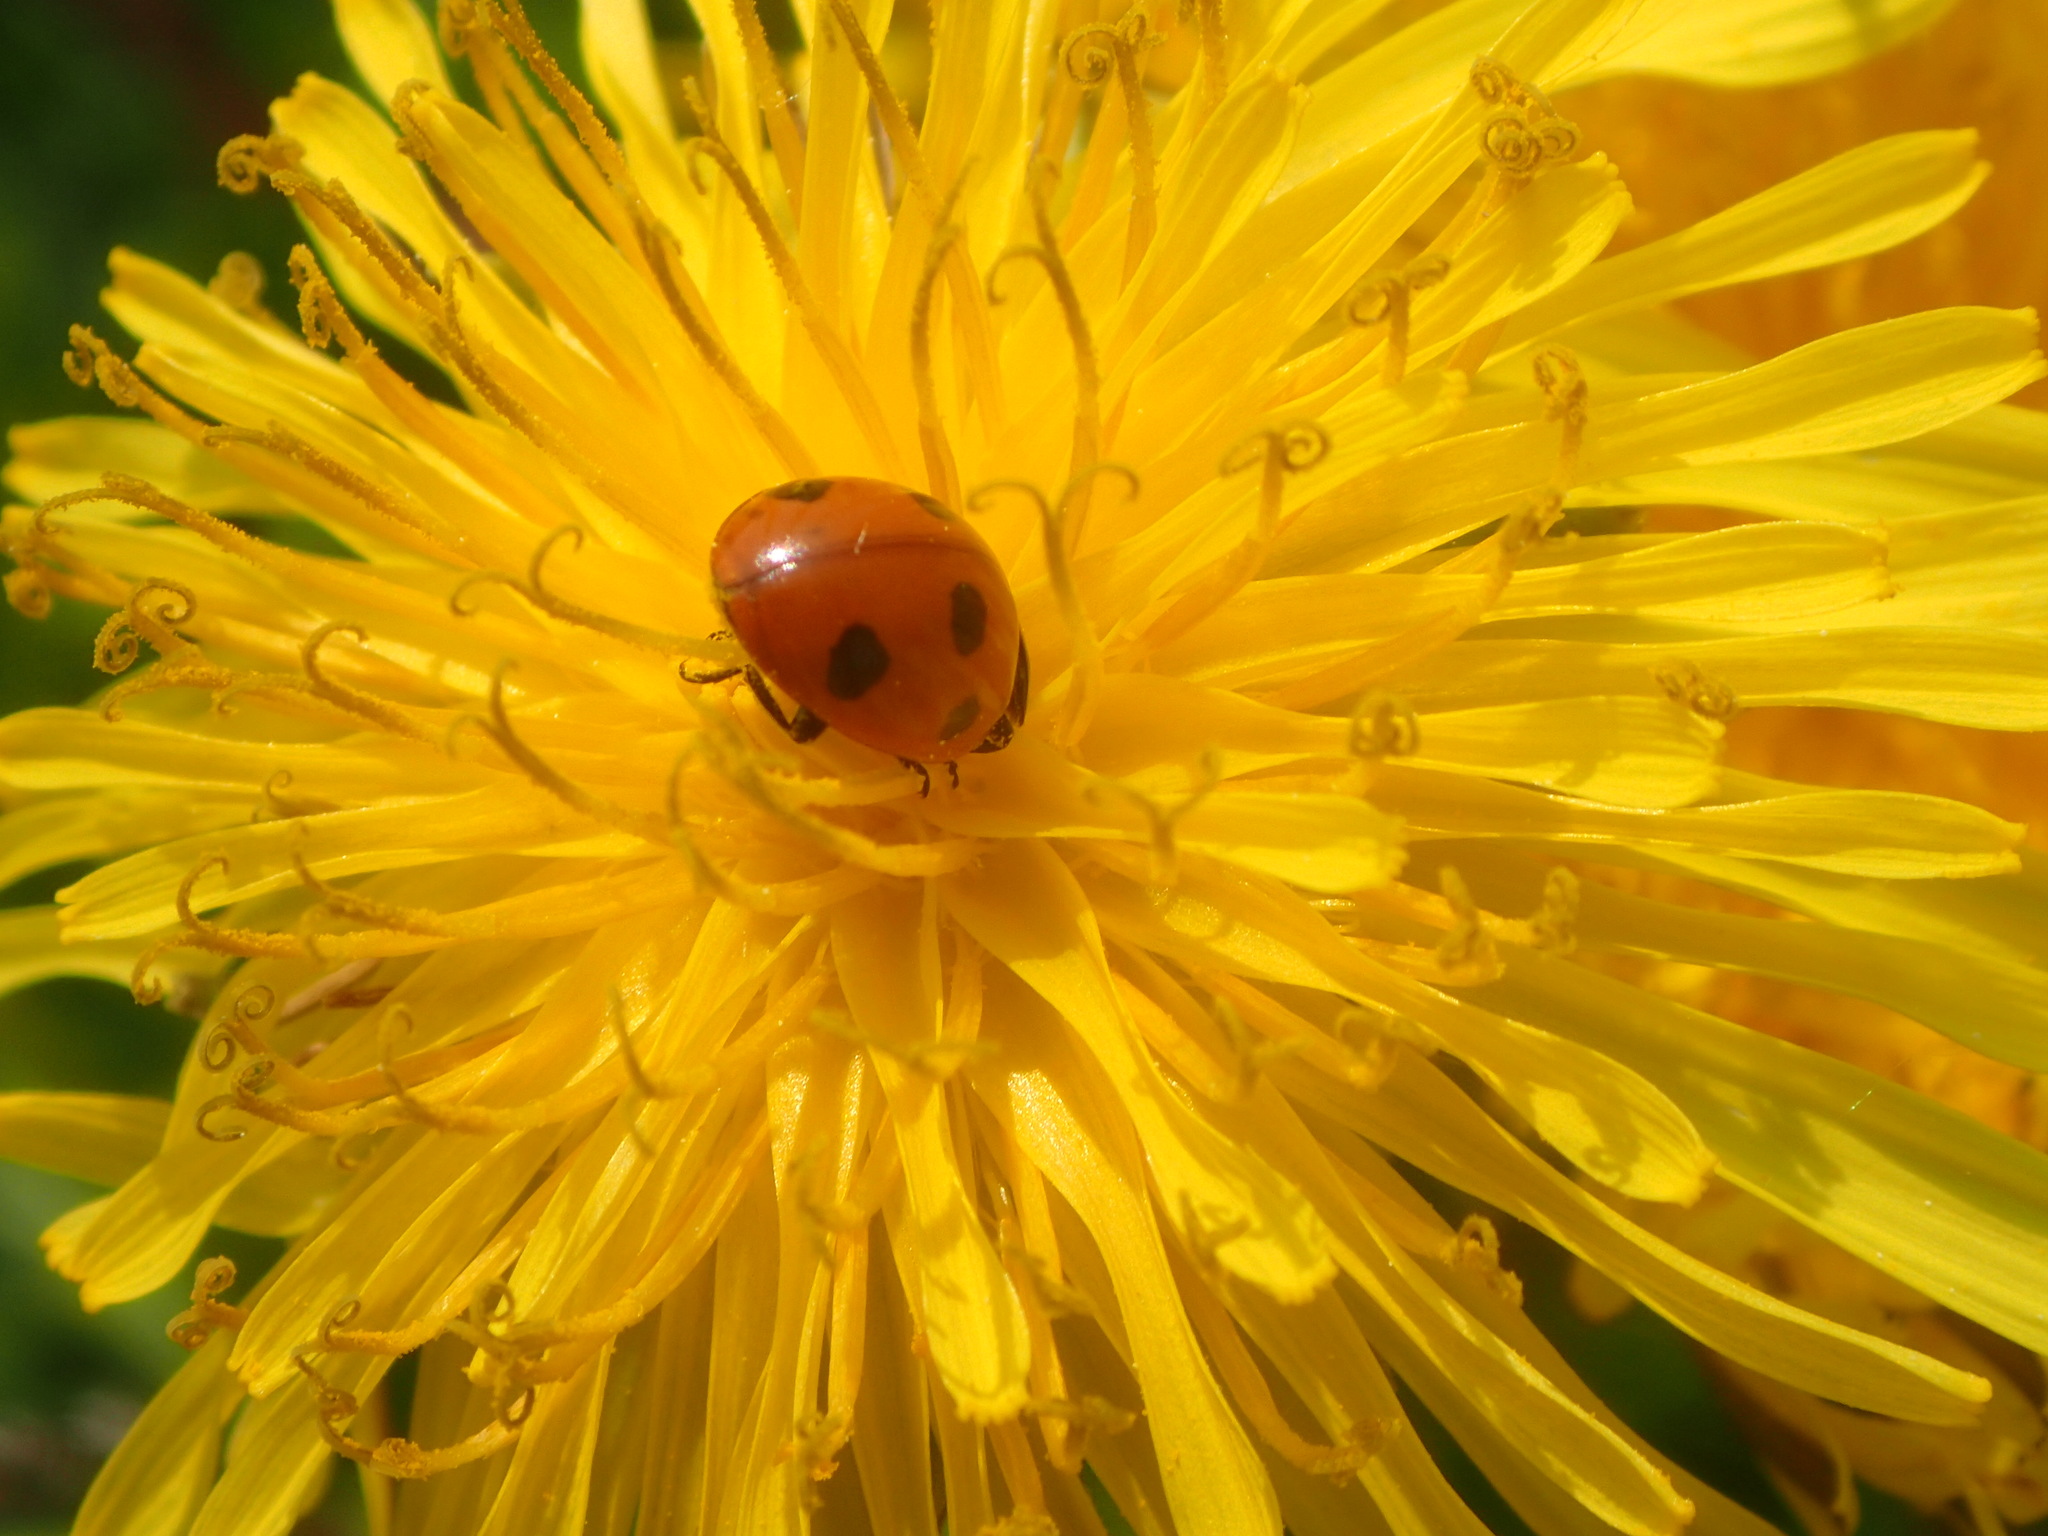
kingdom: Animalia
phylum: Arthropoda
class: Insecta
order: Coleoptera
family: Coccinellidae
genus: Coccinella
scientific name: Coccinella septempunctata
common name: Sevenspotted lady beetle
